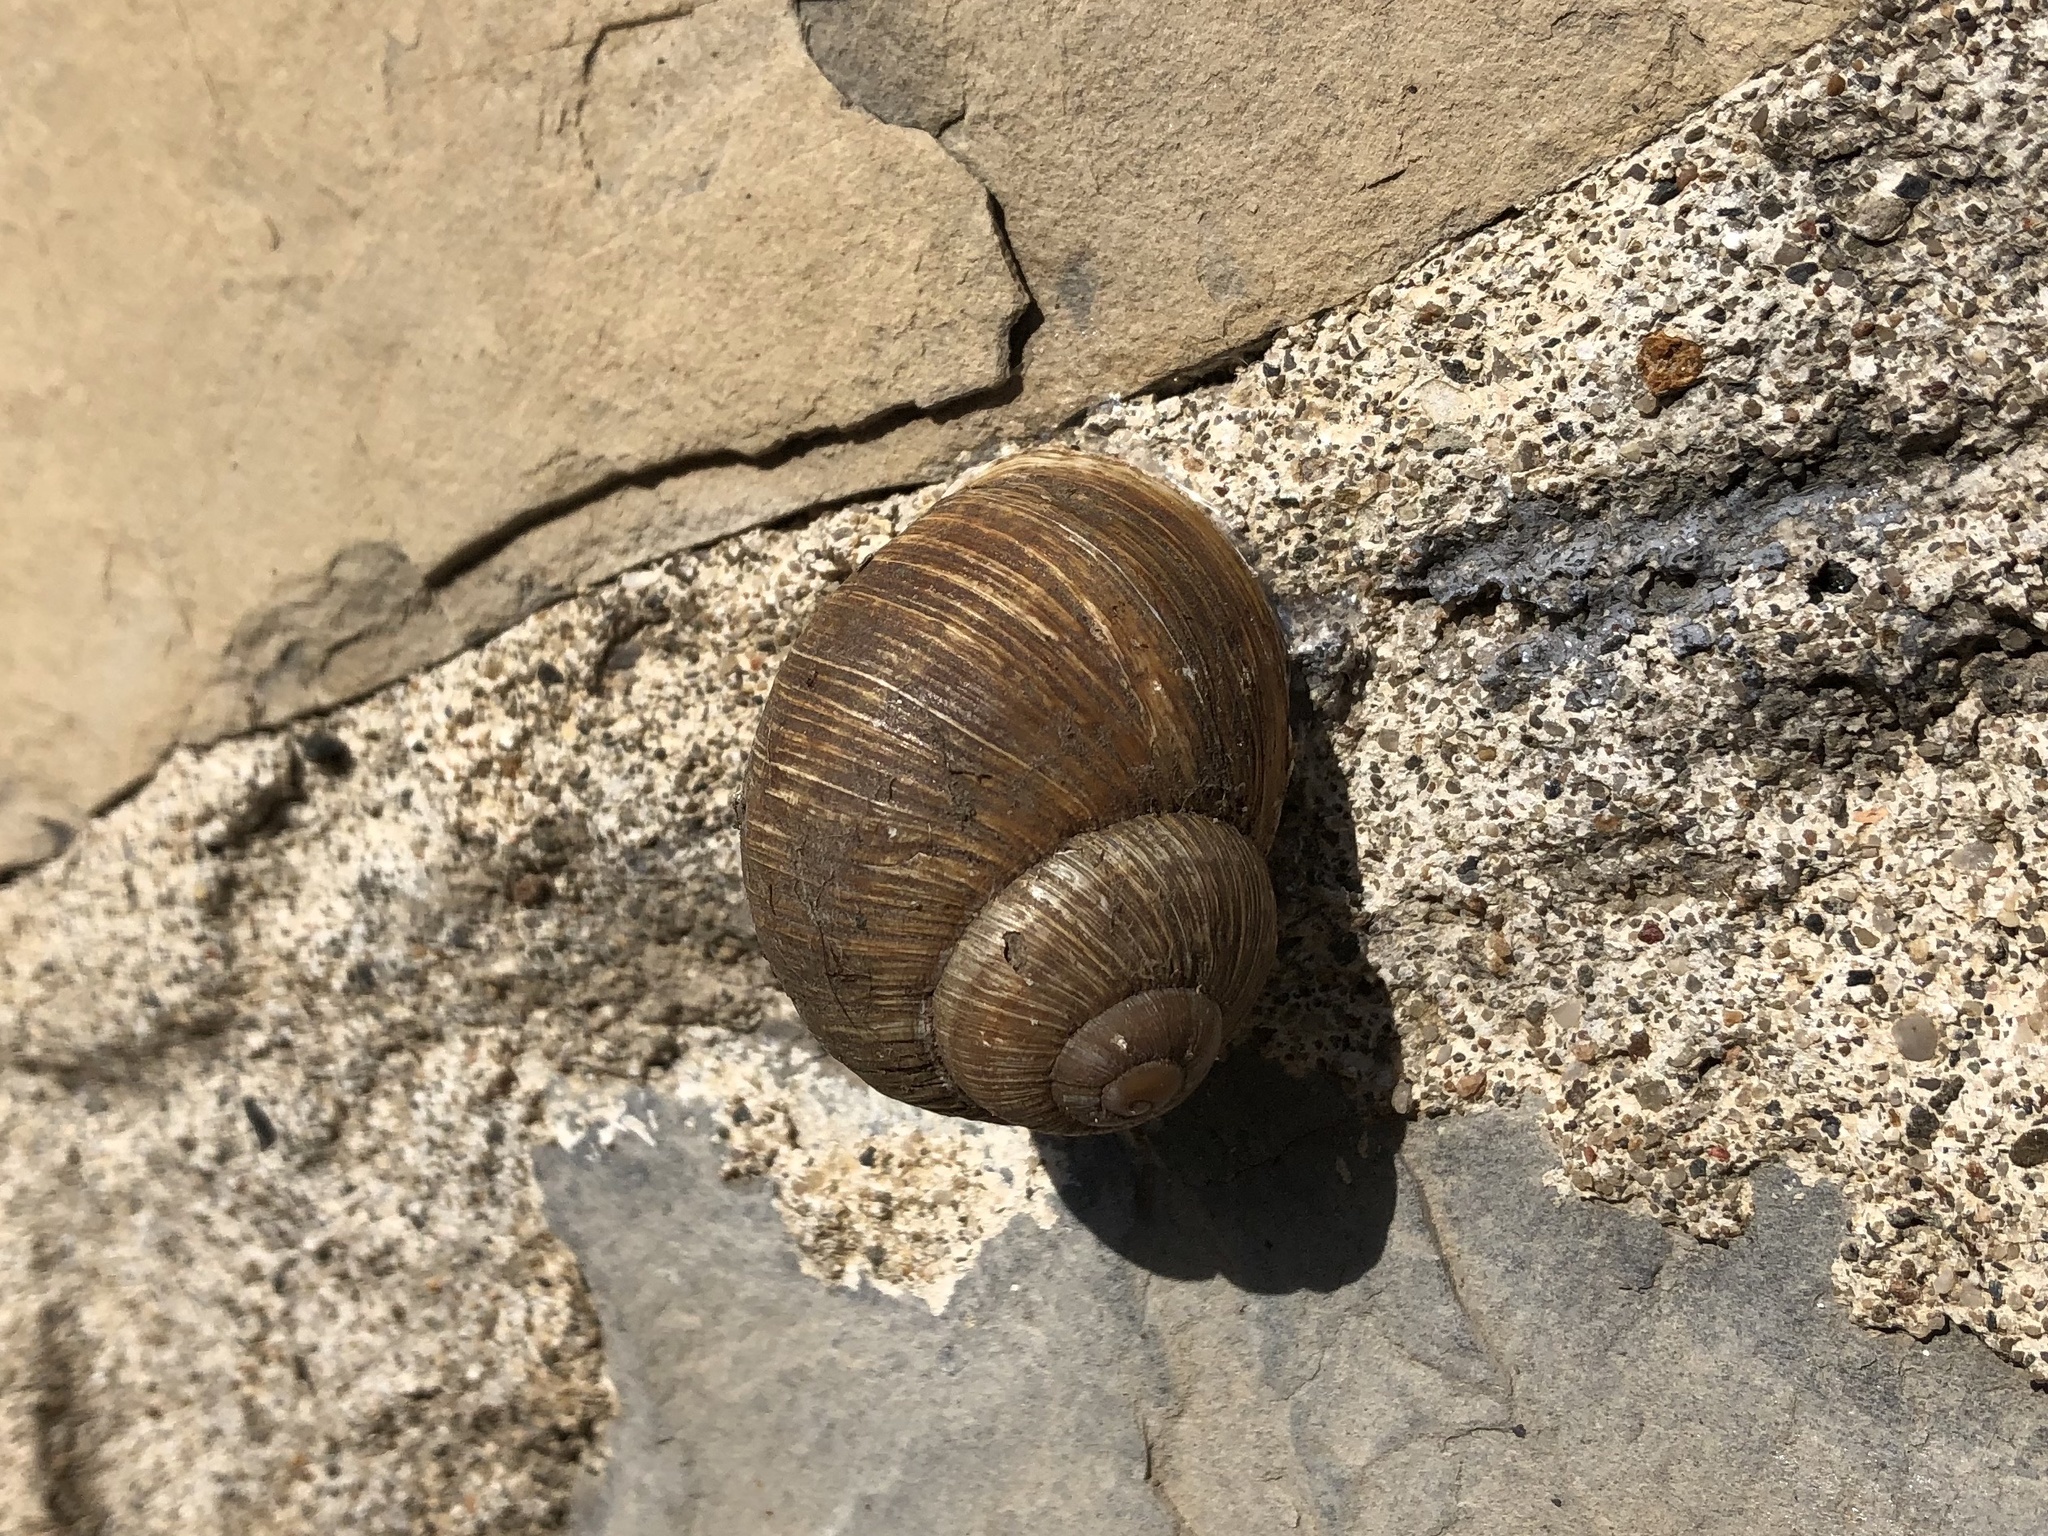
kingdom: Animalia
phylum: Mollusca
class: Gastropoda
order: Stylommatophora
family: Helicidae
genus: Helix
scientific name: Helix pomatia
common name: Roman snail
